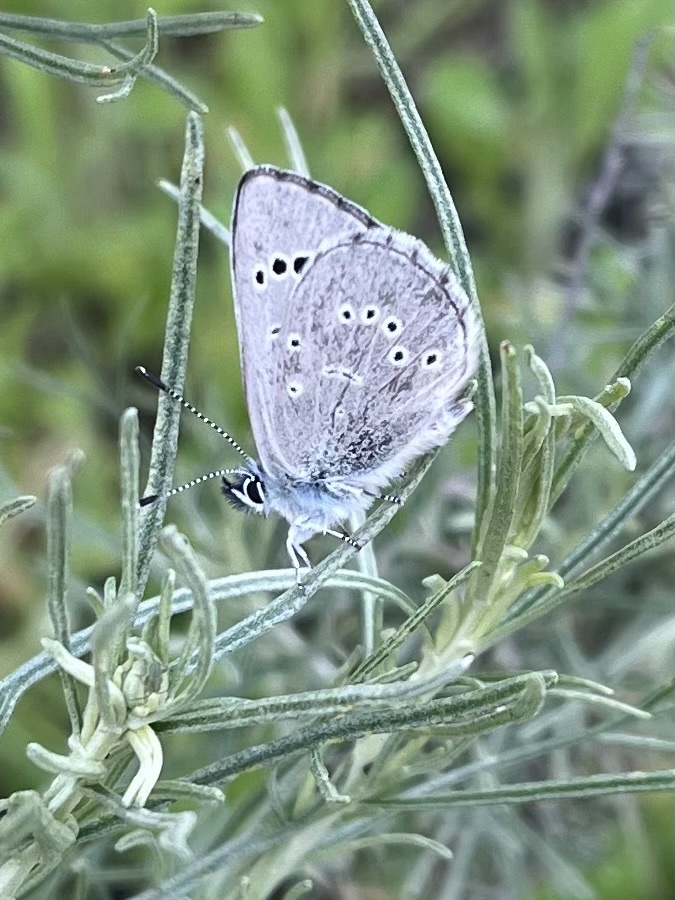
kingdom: Animalia
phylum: Arthropoda
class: Insecta
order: Lepidoptera
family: Lycaenidae
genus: Glaucopsyche
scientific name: Glaucopsyche lygdamus
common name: Silvery blue
